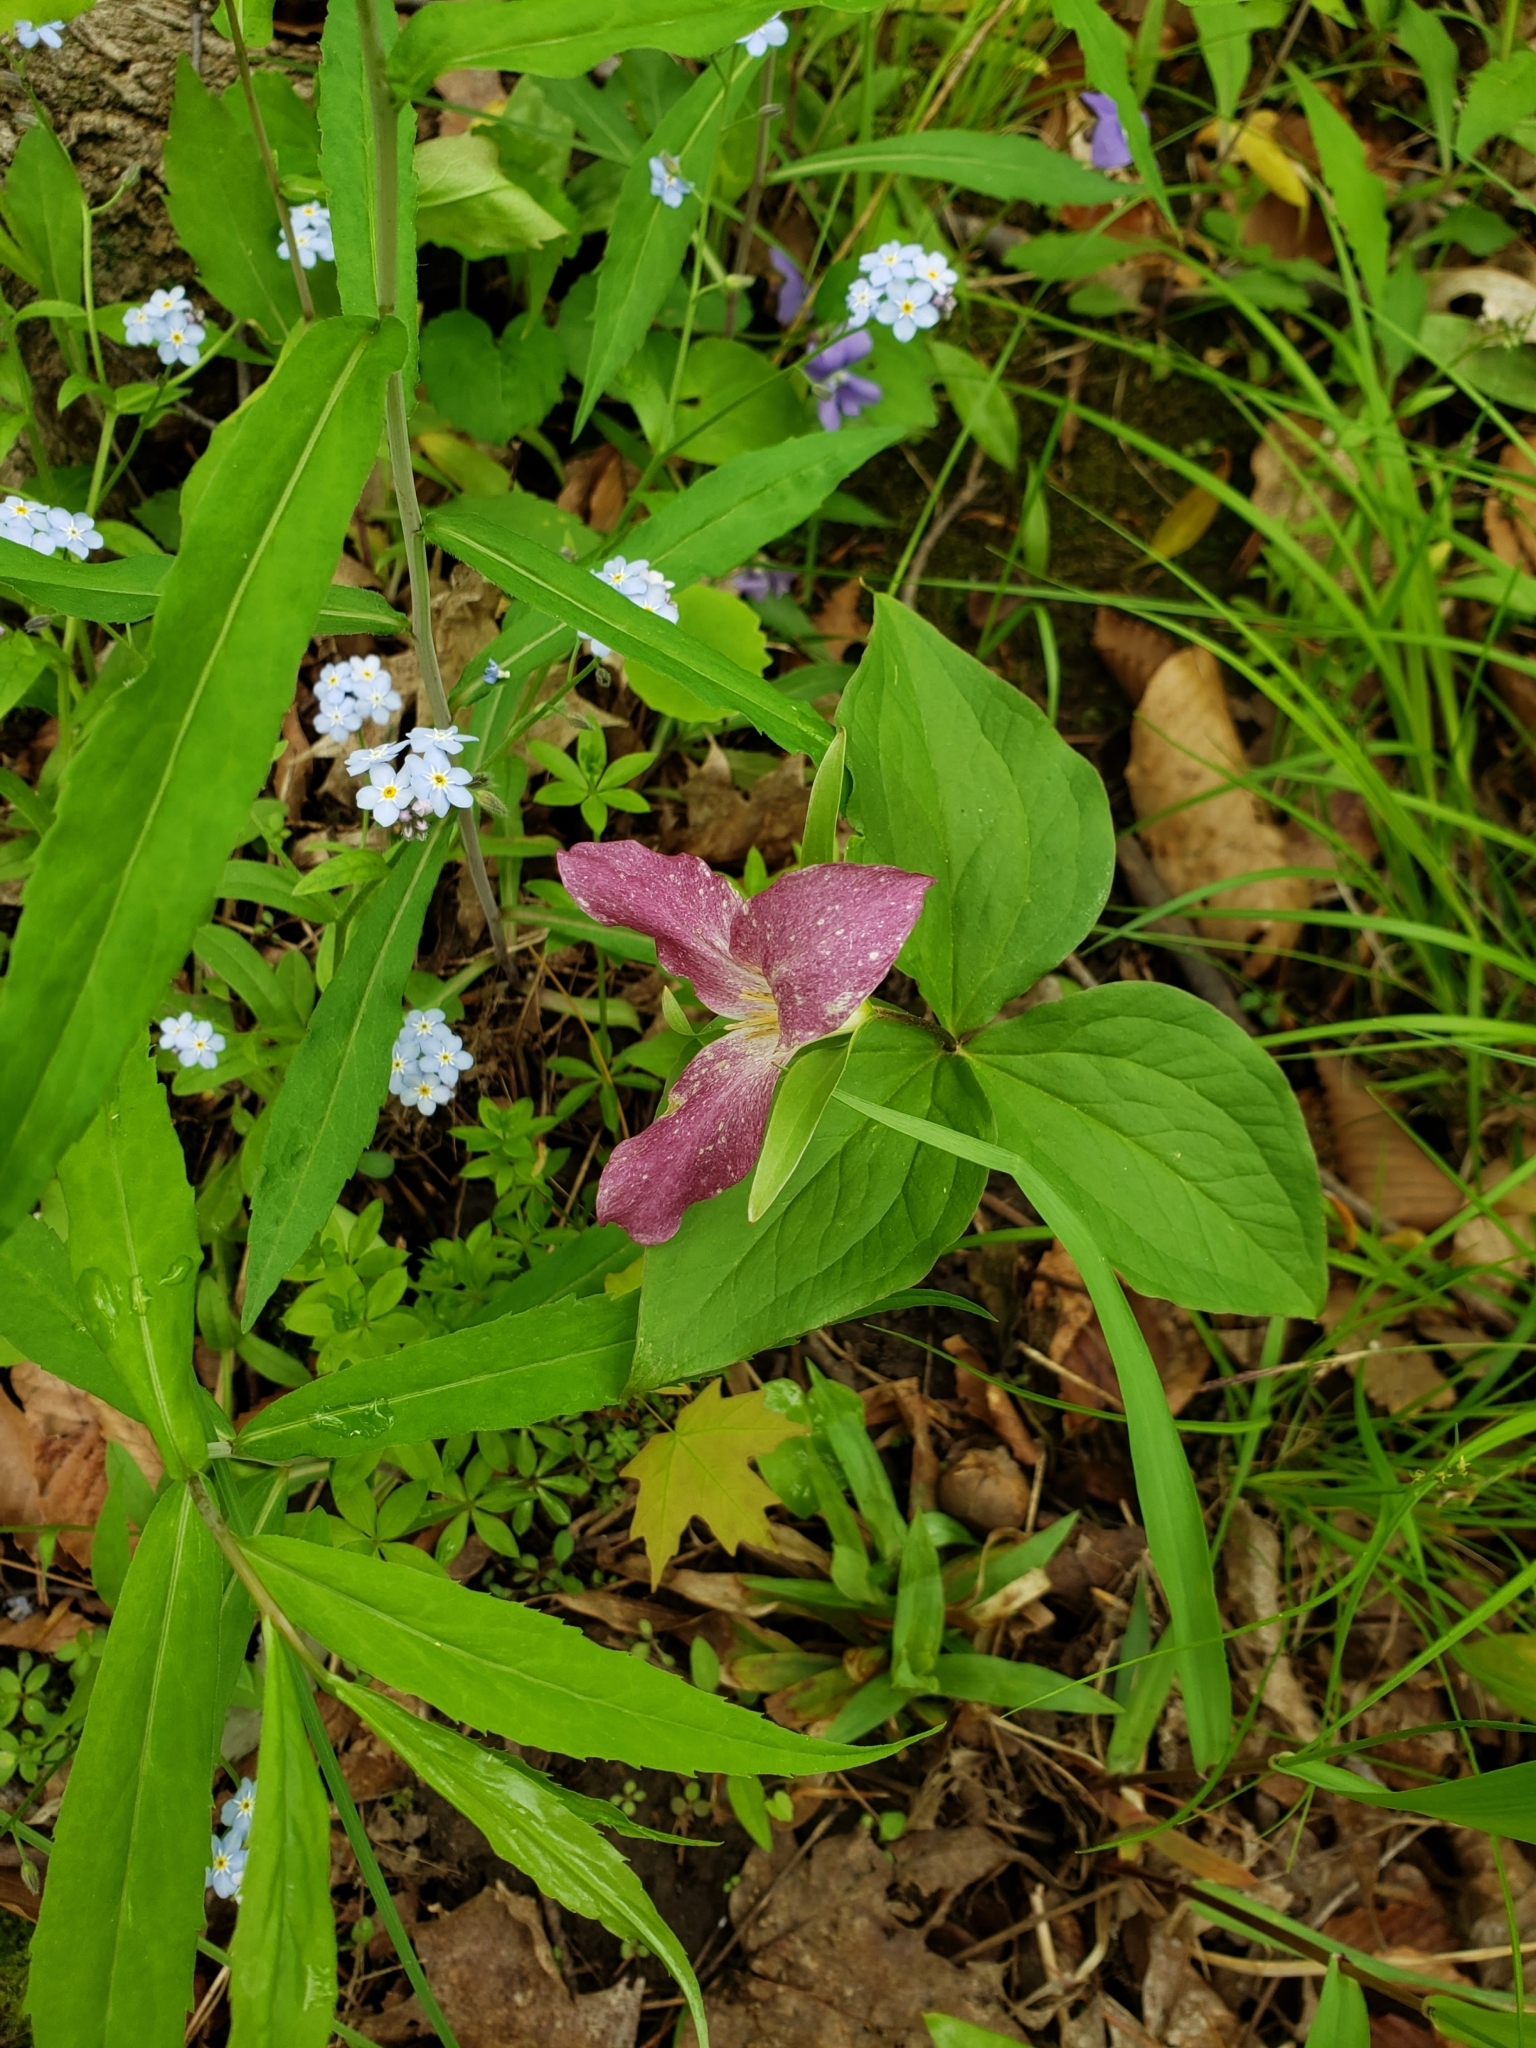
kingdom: Plantae
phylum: Tracheophyta
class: Liliopsida
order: Liliales
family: Melanthiaceae
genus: Trillium
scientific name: Trillium grandiflorum
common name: Great white trillium
